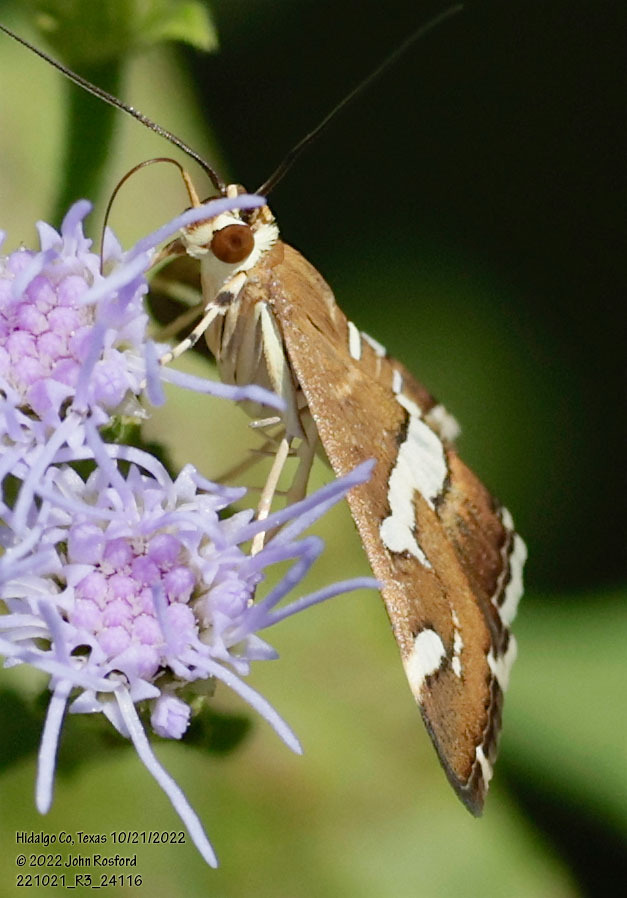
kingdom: Animalia
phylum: Arthropoda
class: Insecta
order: Lepidoptera
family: Crambidae
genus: Spoladea
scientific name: Spoladea recurvalis
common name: Beet webworm moth
